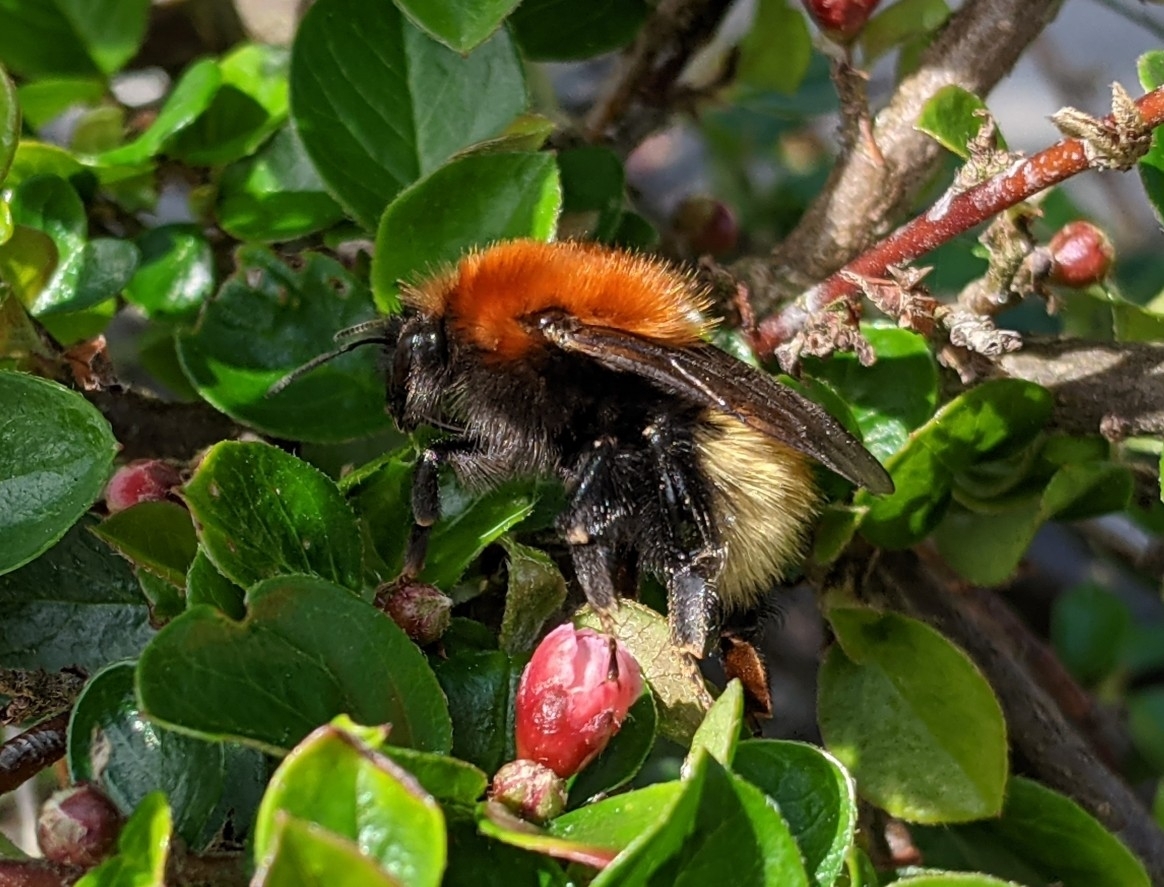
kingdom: Animalia
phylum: Arthropoda
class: Insecta
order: Hymenoptera
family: Apidae
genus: Bombus
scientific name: Bombus muscorum
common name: Moss carder-bee
